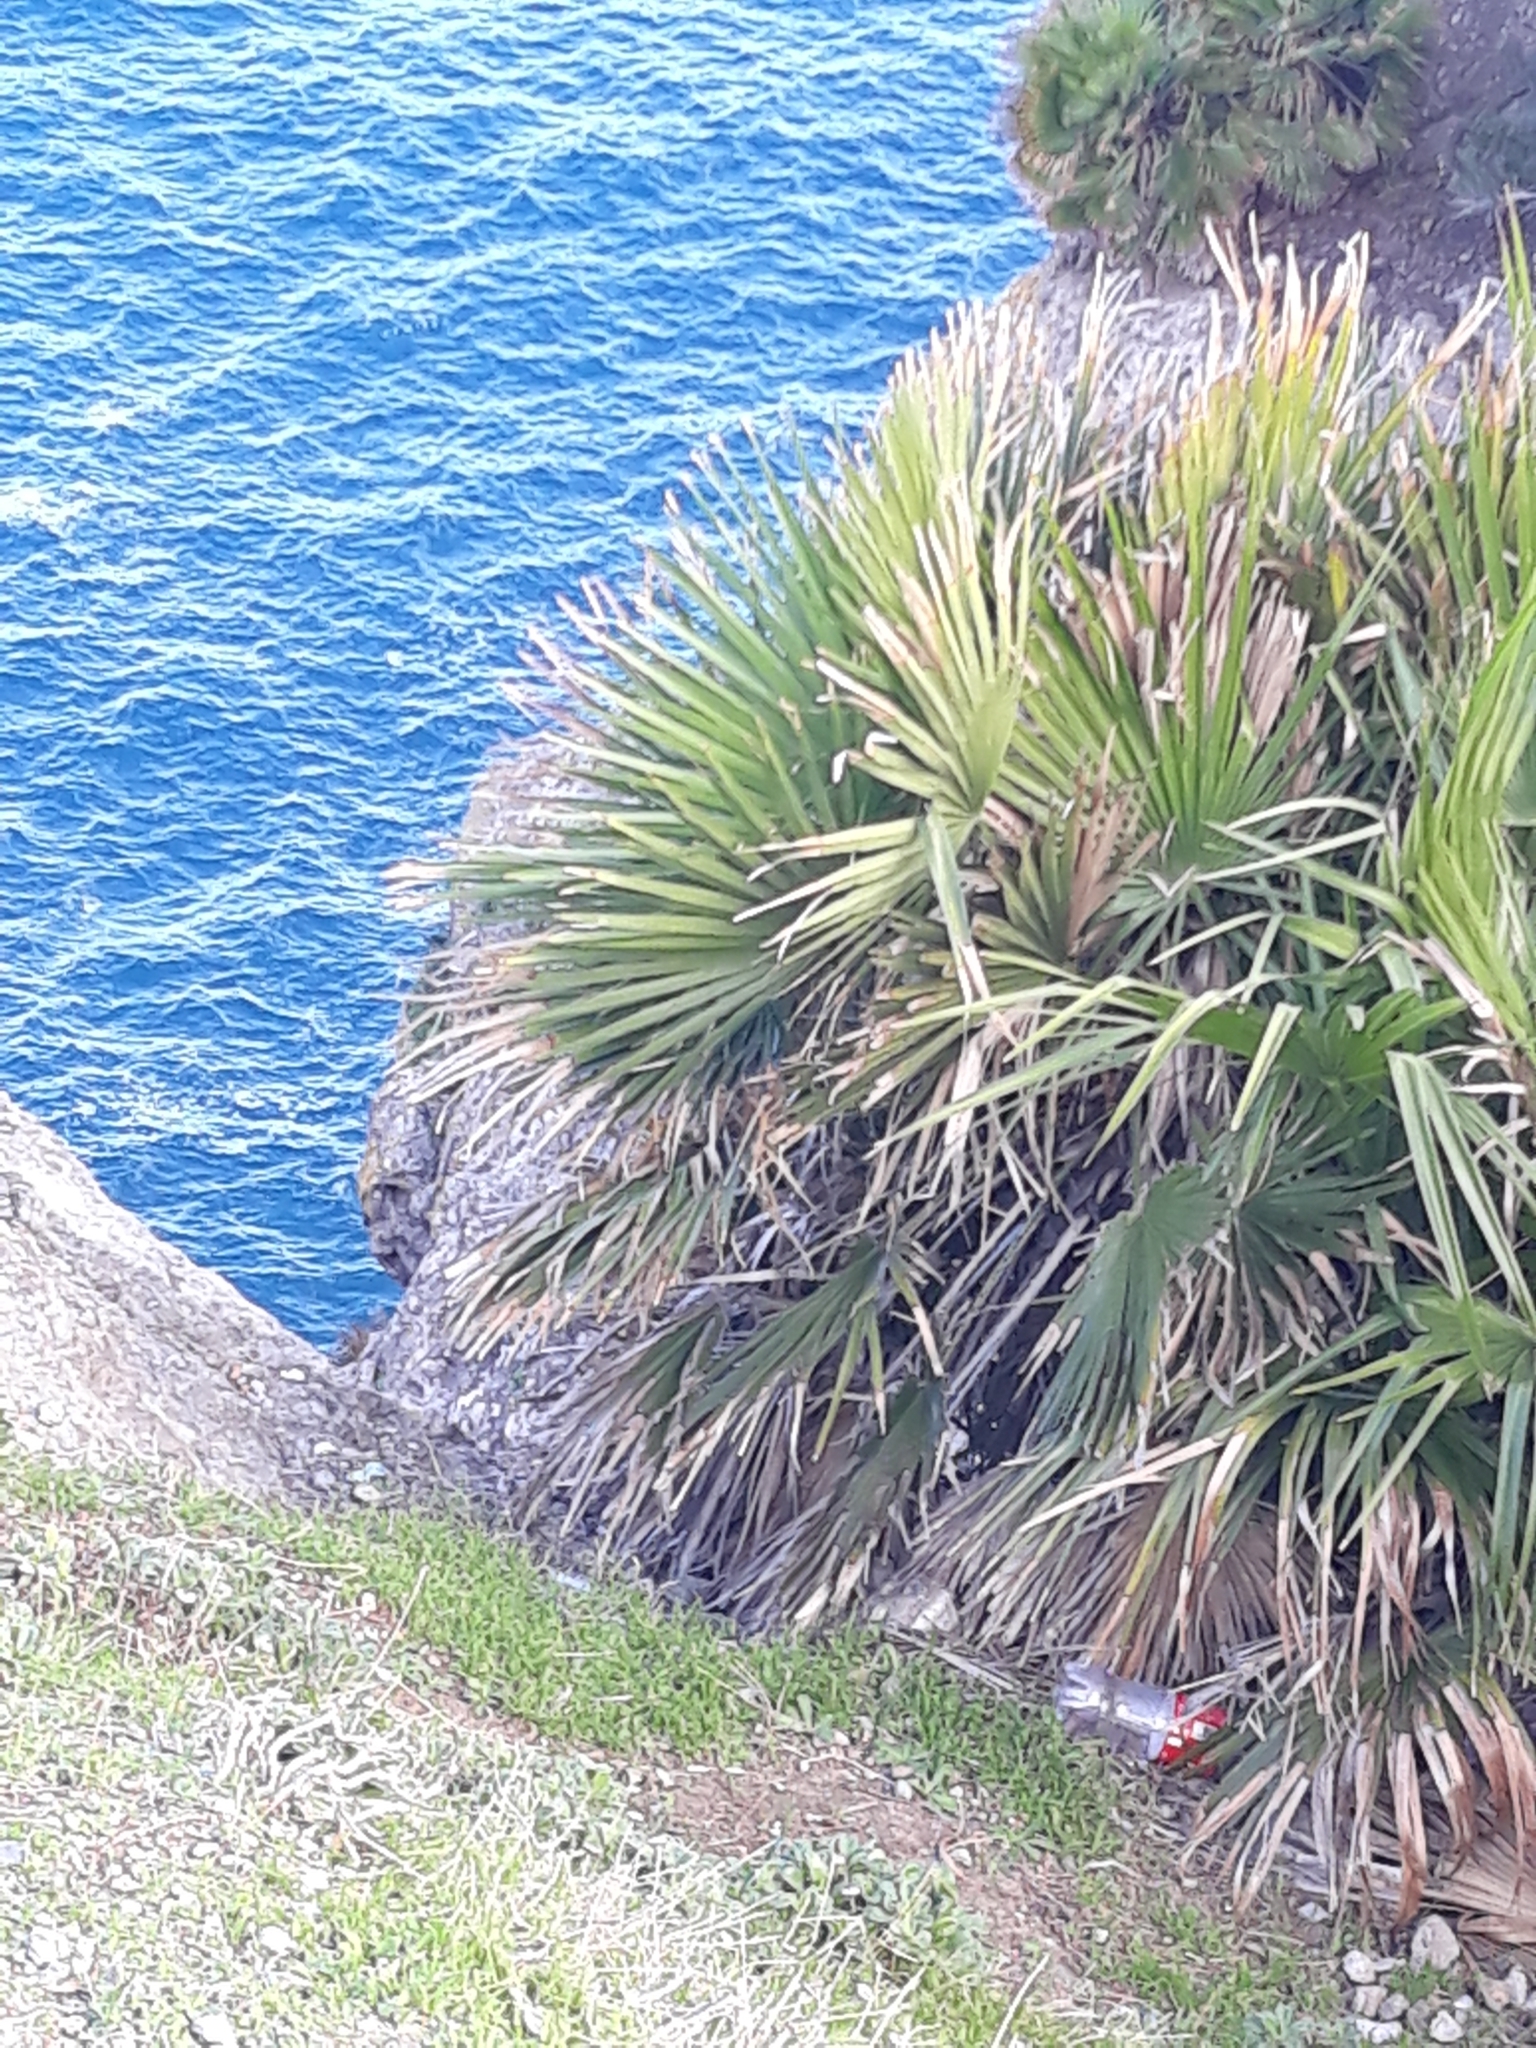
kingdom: Plantae
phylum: Tracheophyta
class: Liliopsida
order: Arecales
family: Arecaceae
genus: Chamaerops
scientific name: Chamaerops humilis
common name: Dwarf fan palm
